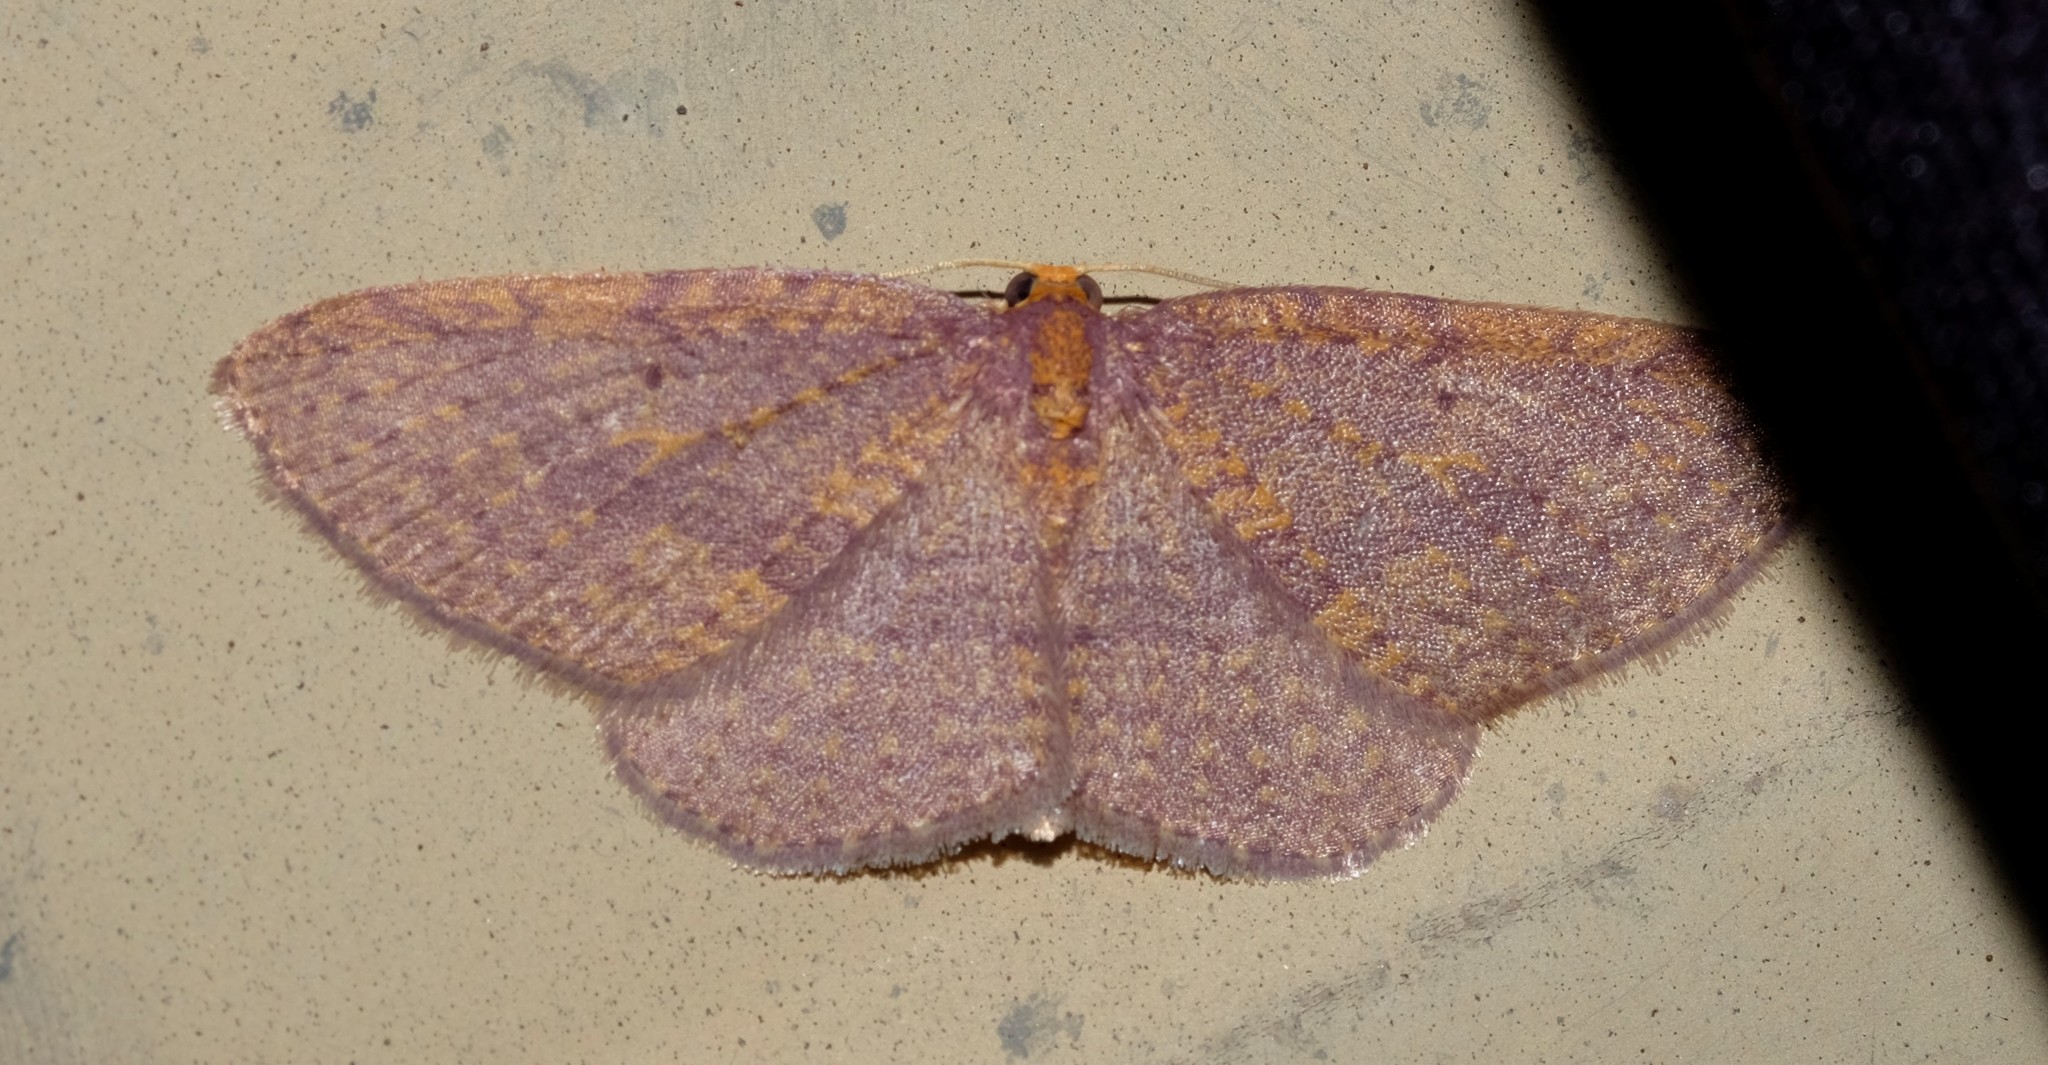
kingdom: Animalia
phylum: Arthropoda
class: Insecta
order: Lepidoptera
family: Geometridae
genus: Poecilasthena
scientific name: Poecilasthena anthodes
